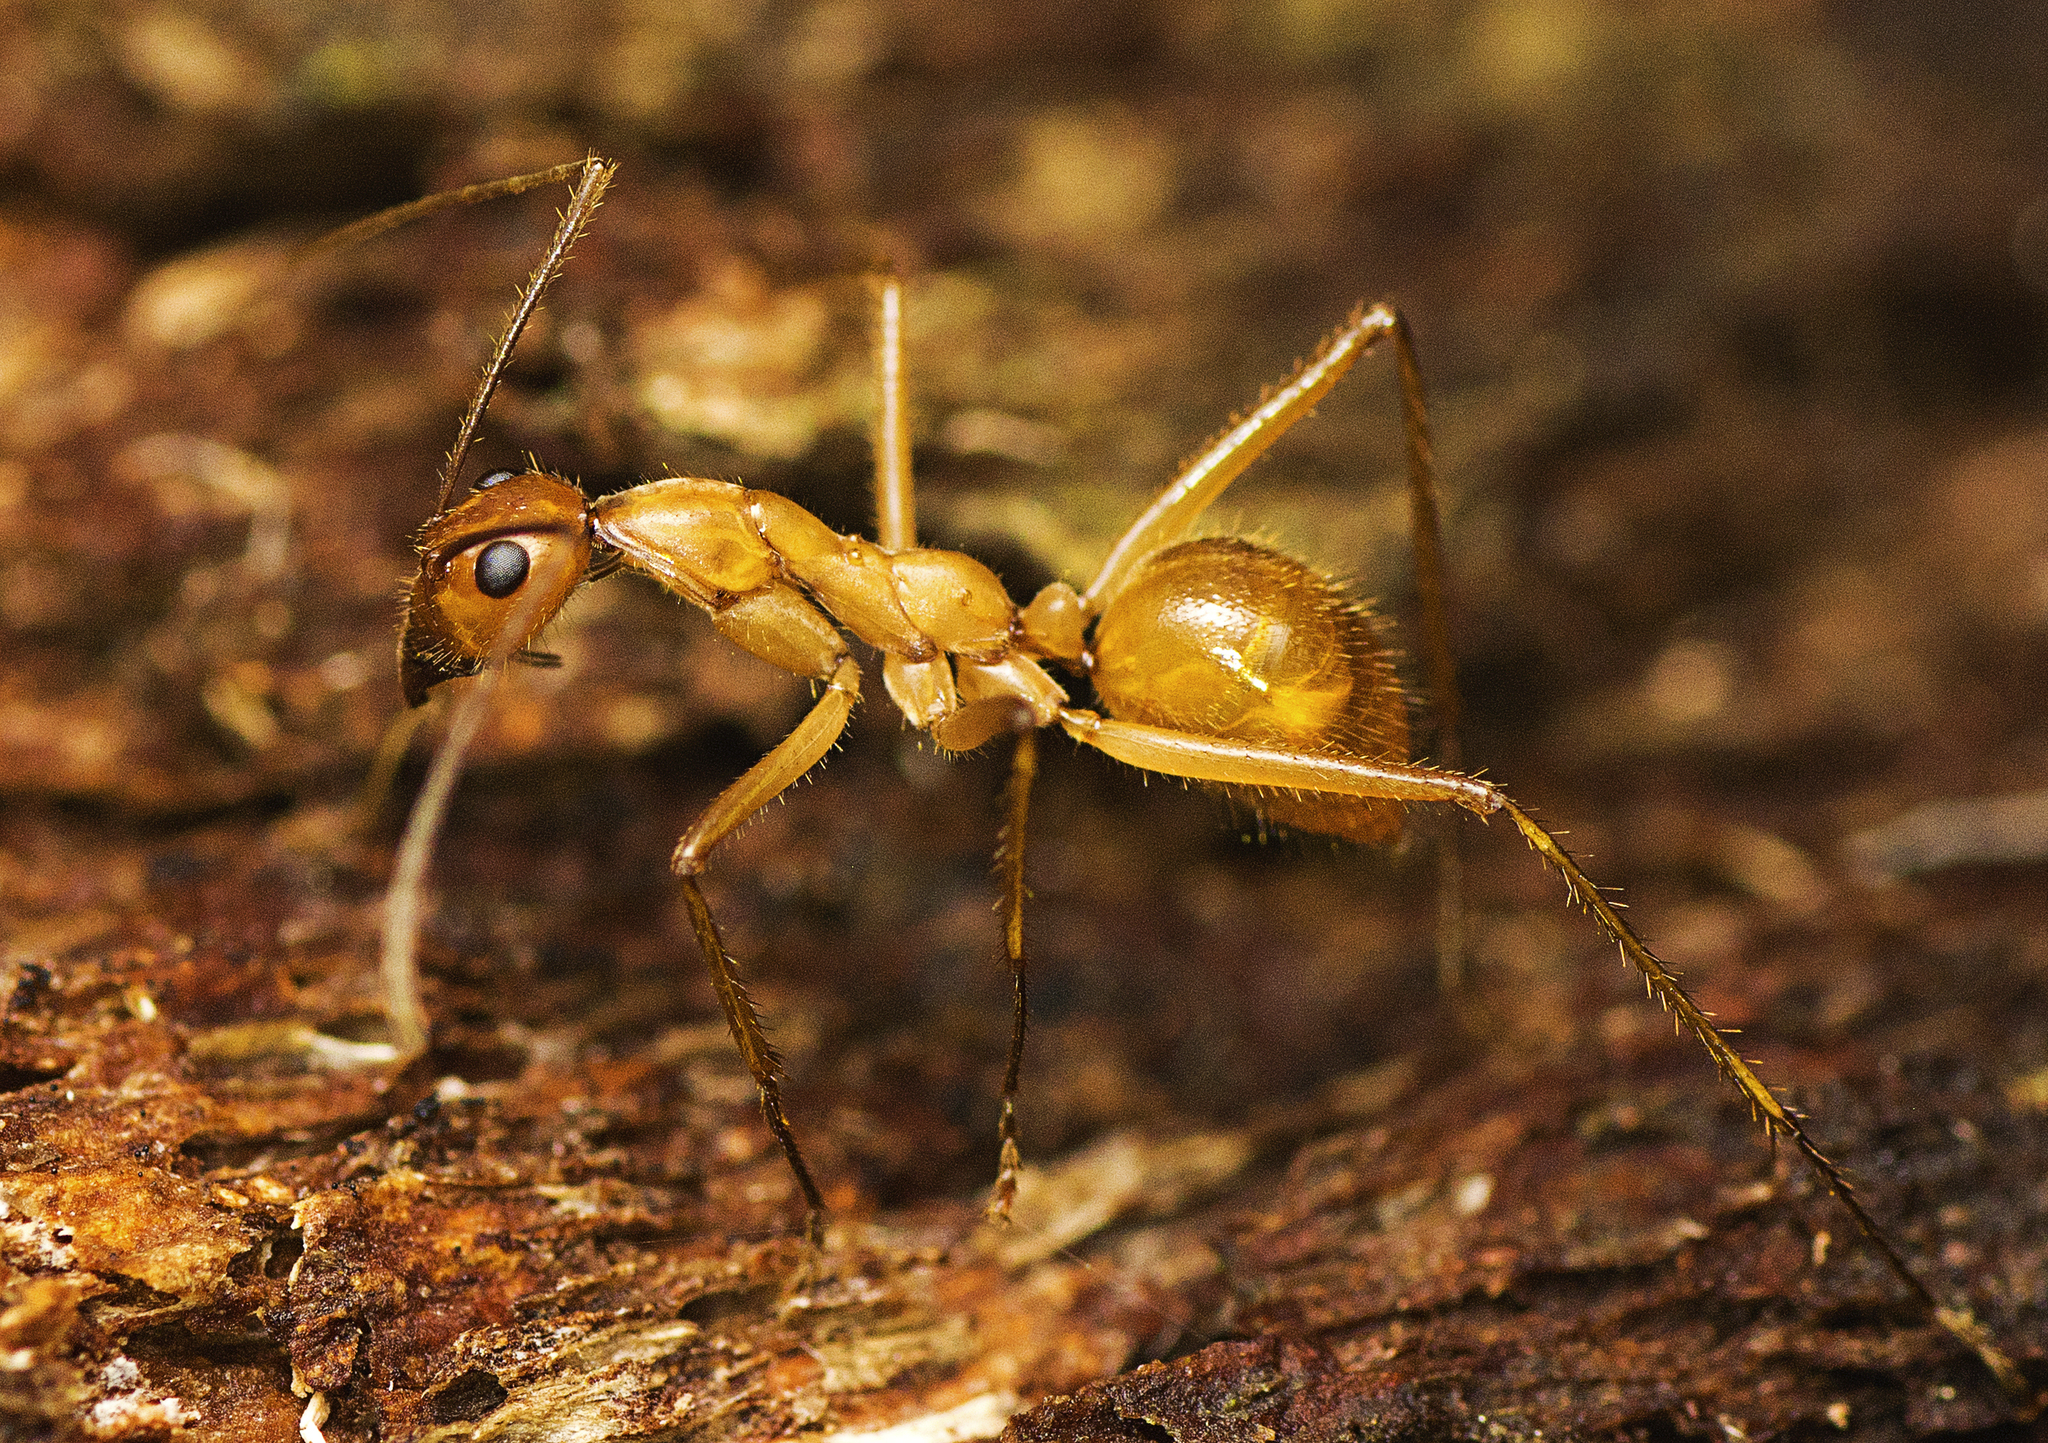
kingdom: Animalia
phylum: Arthropoda
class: Insecta
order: Hymenoptera
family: Formicidae
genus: Notostigma
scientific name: Notostigma foreli
